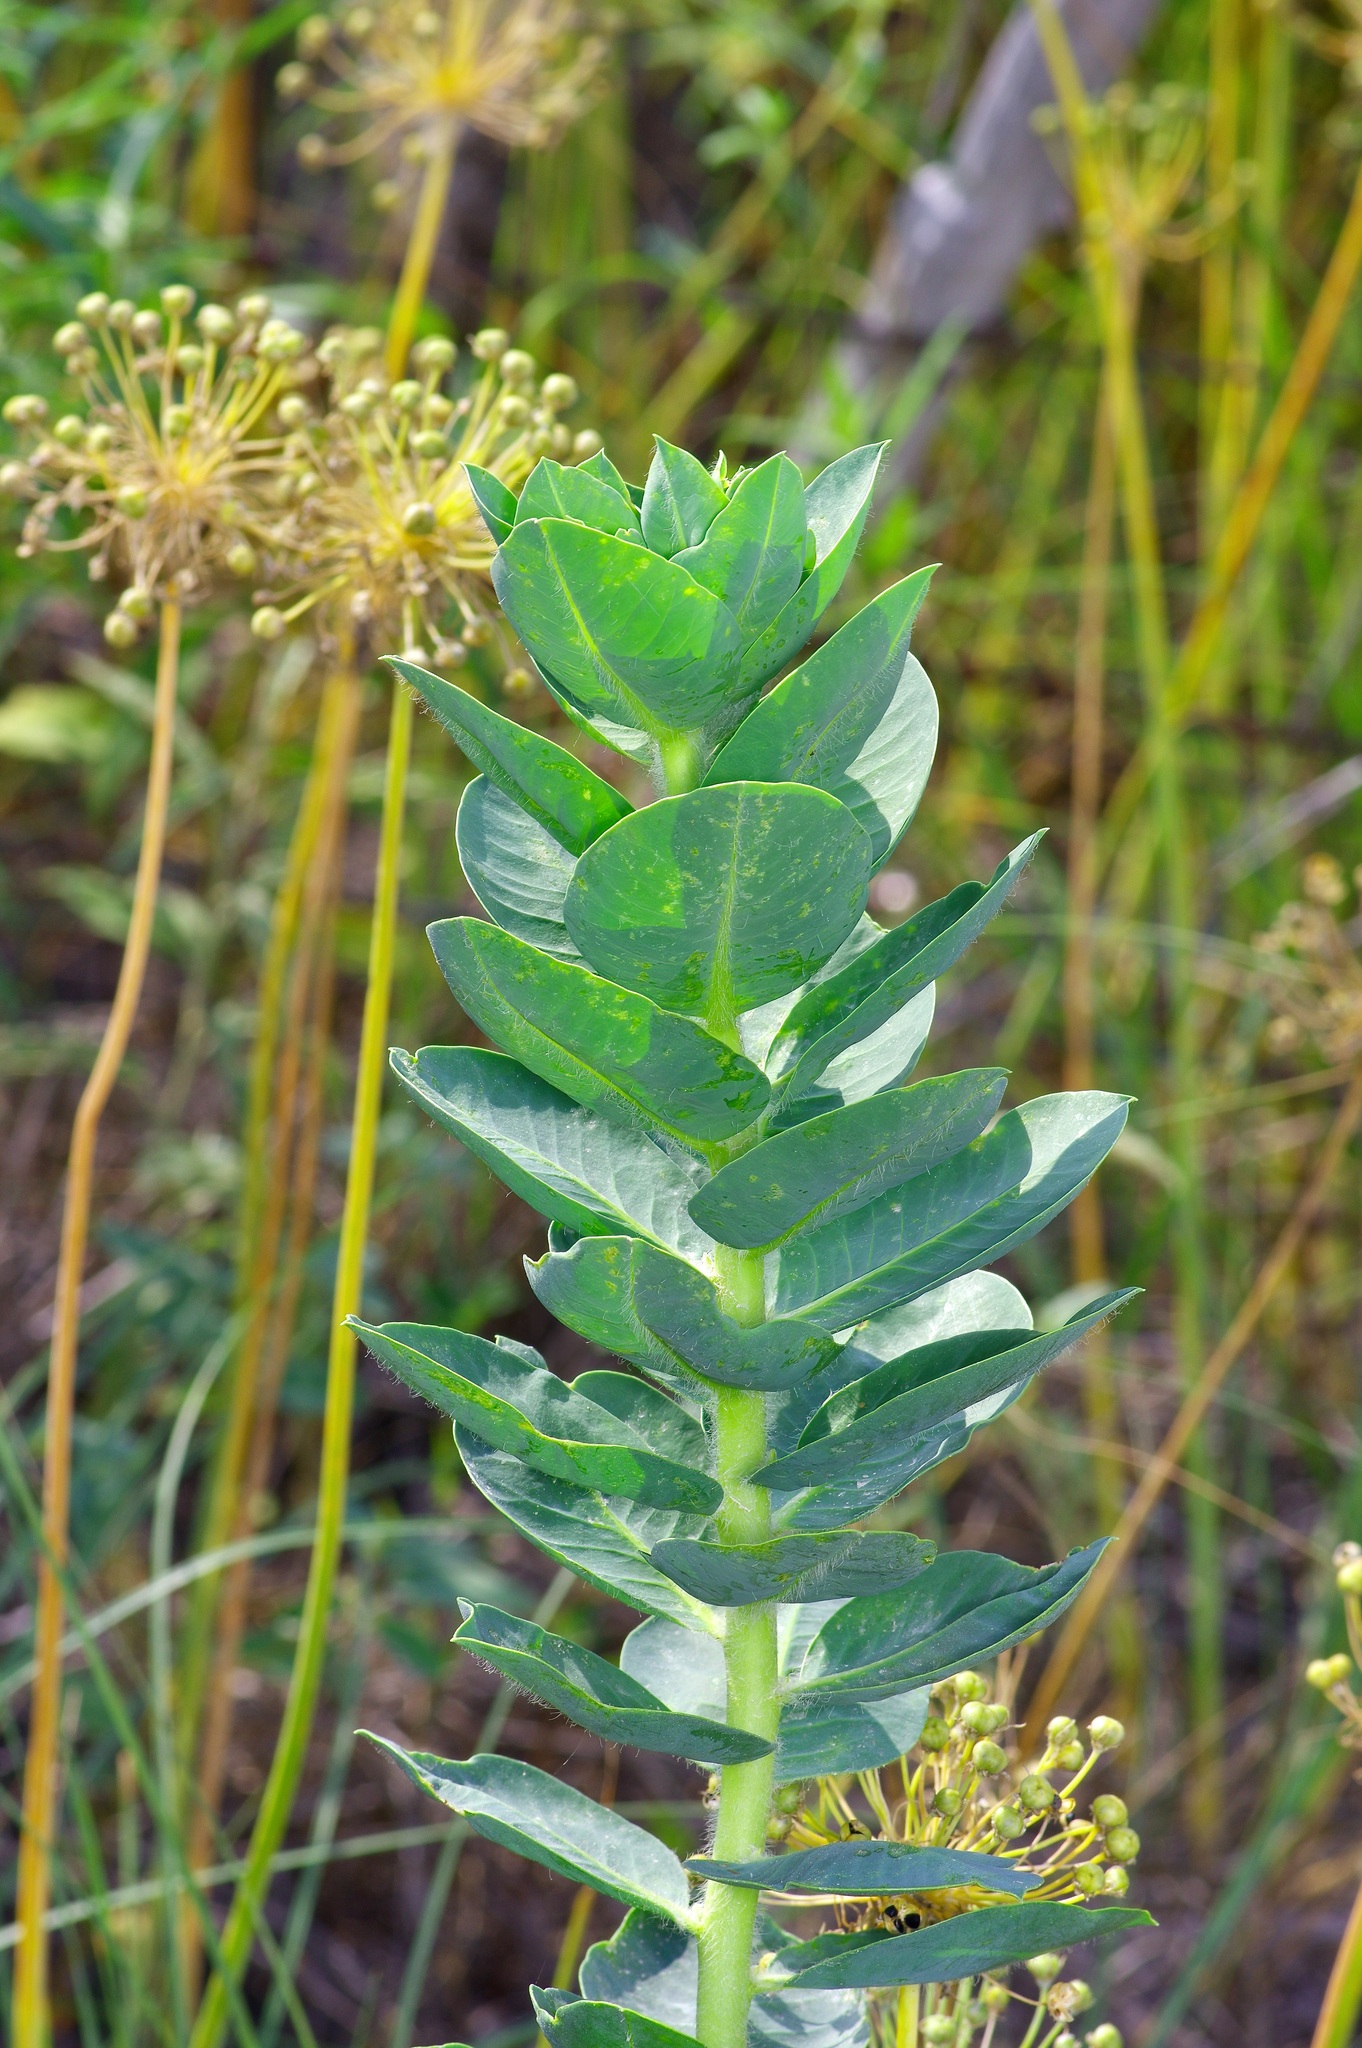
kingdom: Plantae
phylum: Tracheophyta
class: Magnoliopsida
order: Malpighiales
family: Euphorbiaceae
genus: Euphorbia
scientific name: Euphorbia marginata
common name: Ghostweed
